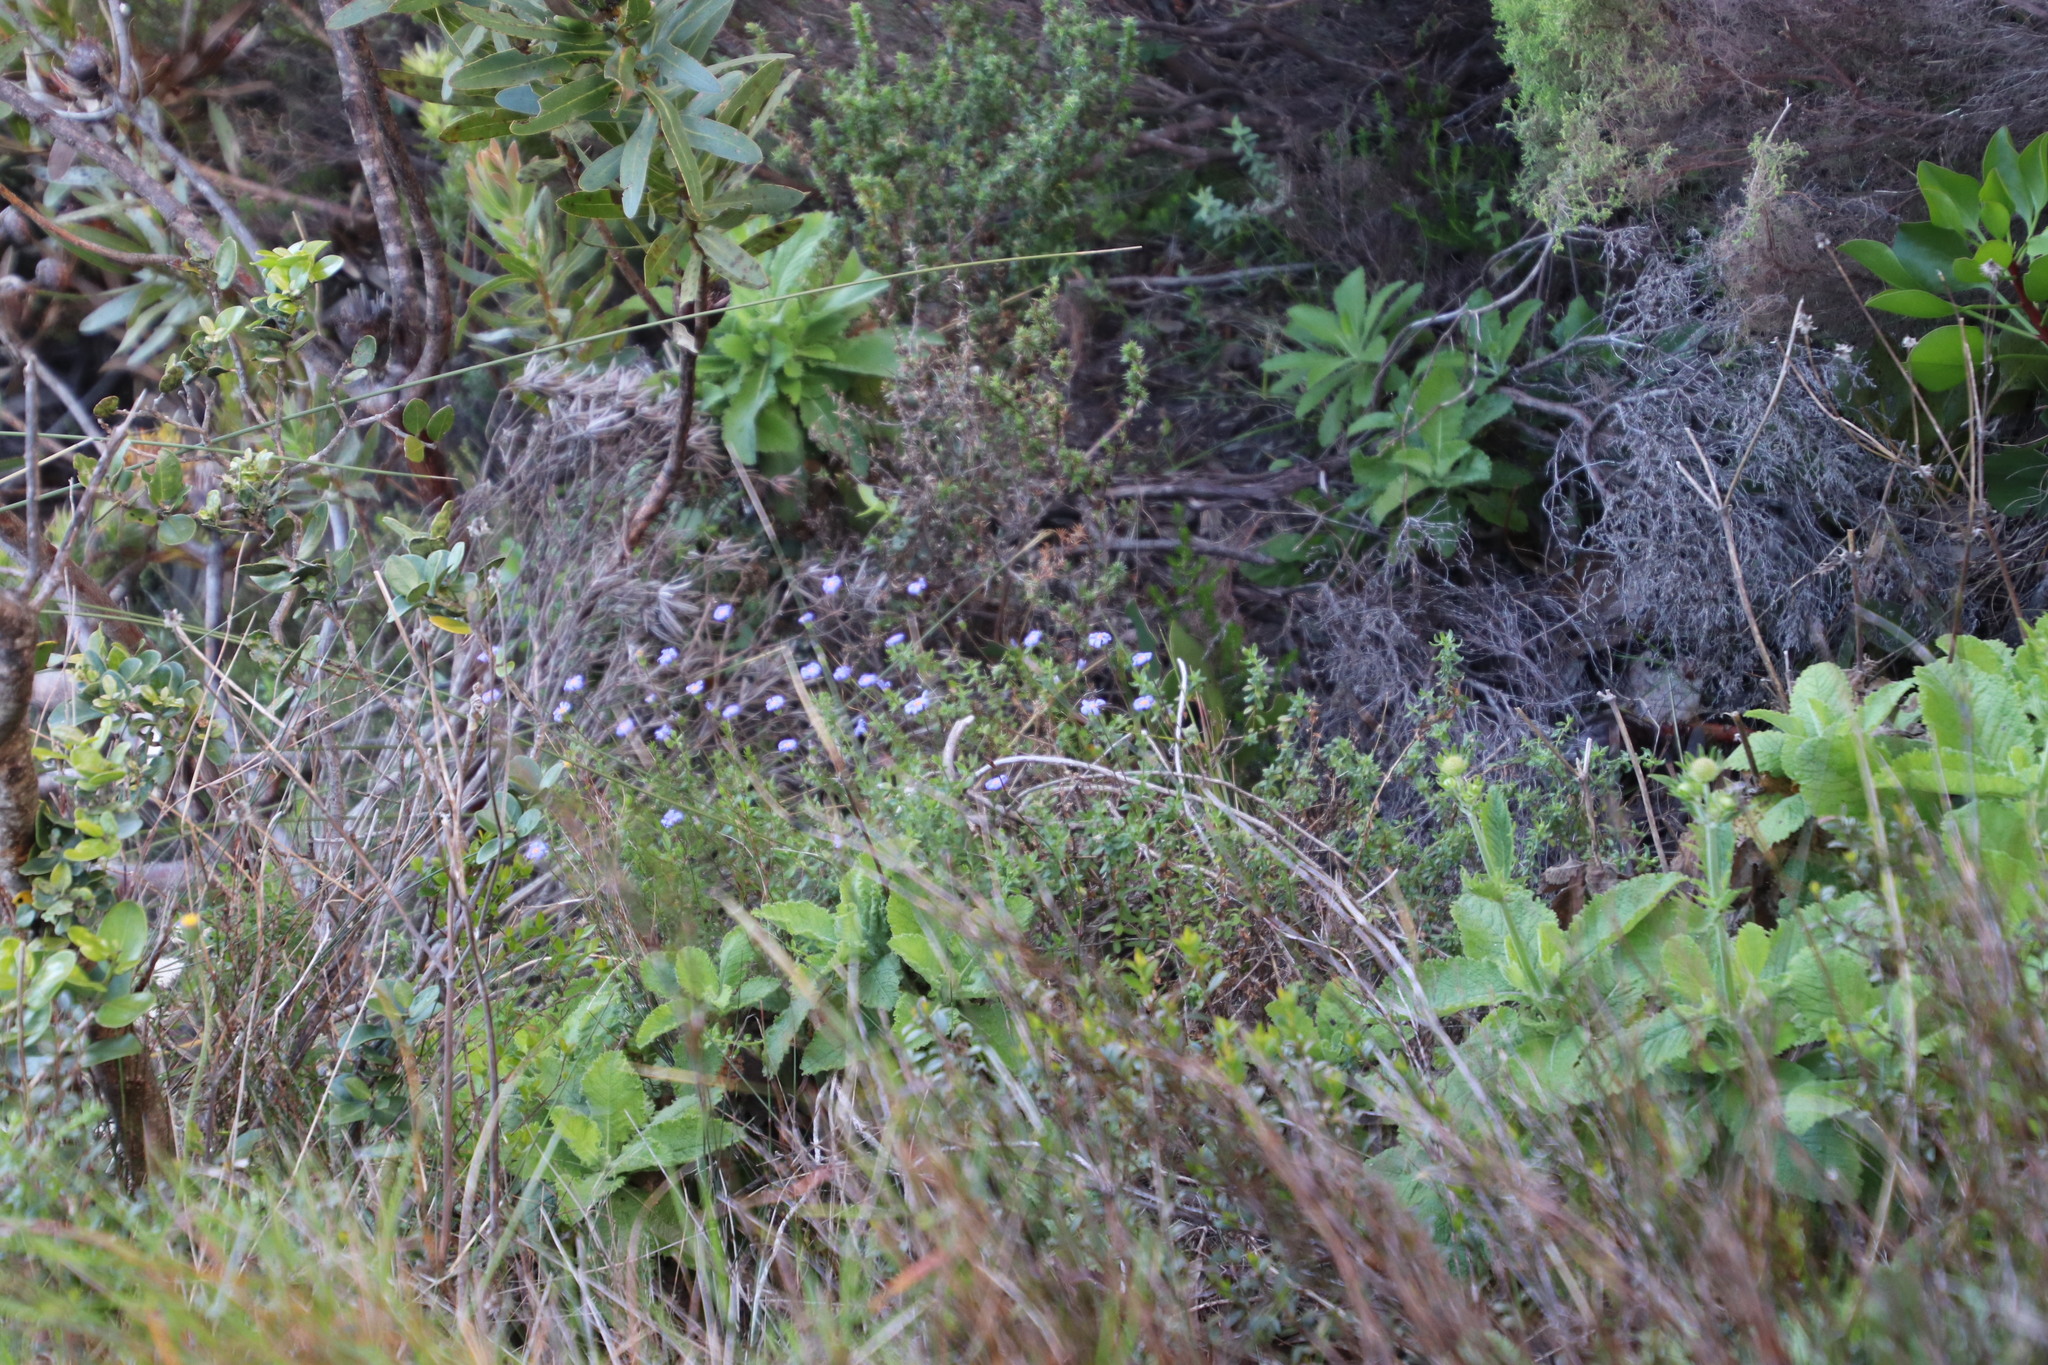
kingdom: Plantae
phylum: Tracheophyta
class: Magnoliopsida
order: Asterales
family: Asteraceae
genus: Felicia
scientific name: Felicia aethiopica
